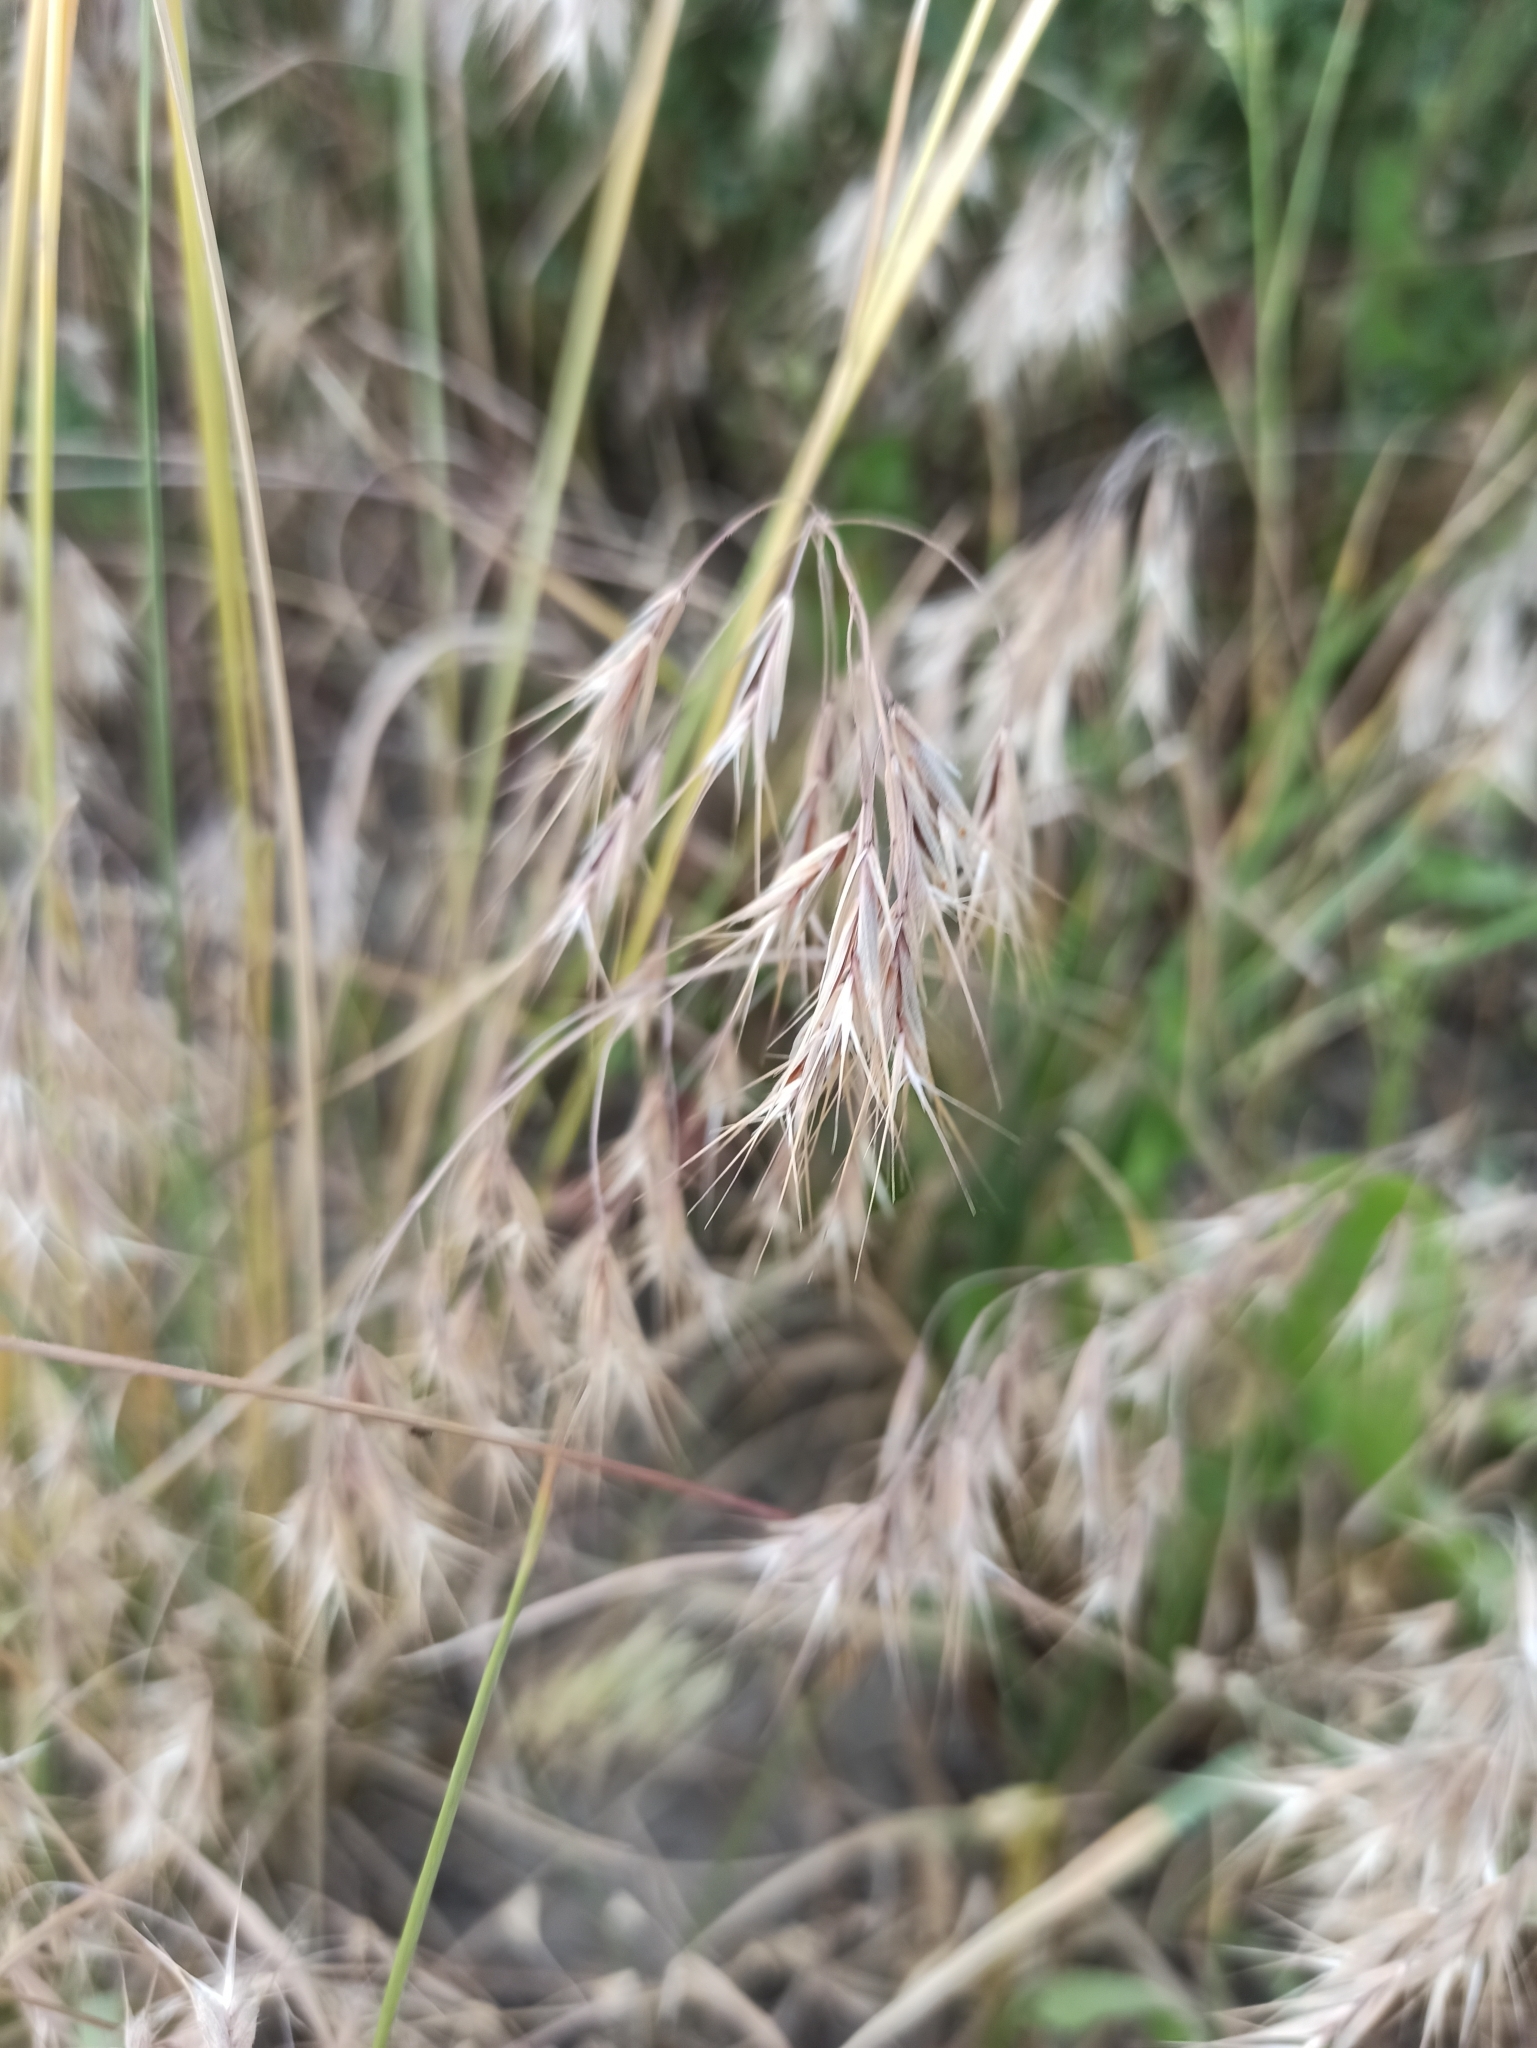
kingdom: Plantae
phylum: Tracheophyta
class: Liliopsida
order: Poales
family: Poaceae
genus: Bromus
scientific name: Bromus tectorum
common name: Cheatgrass
